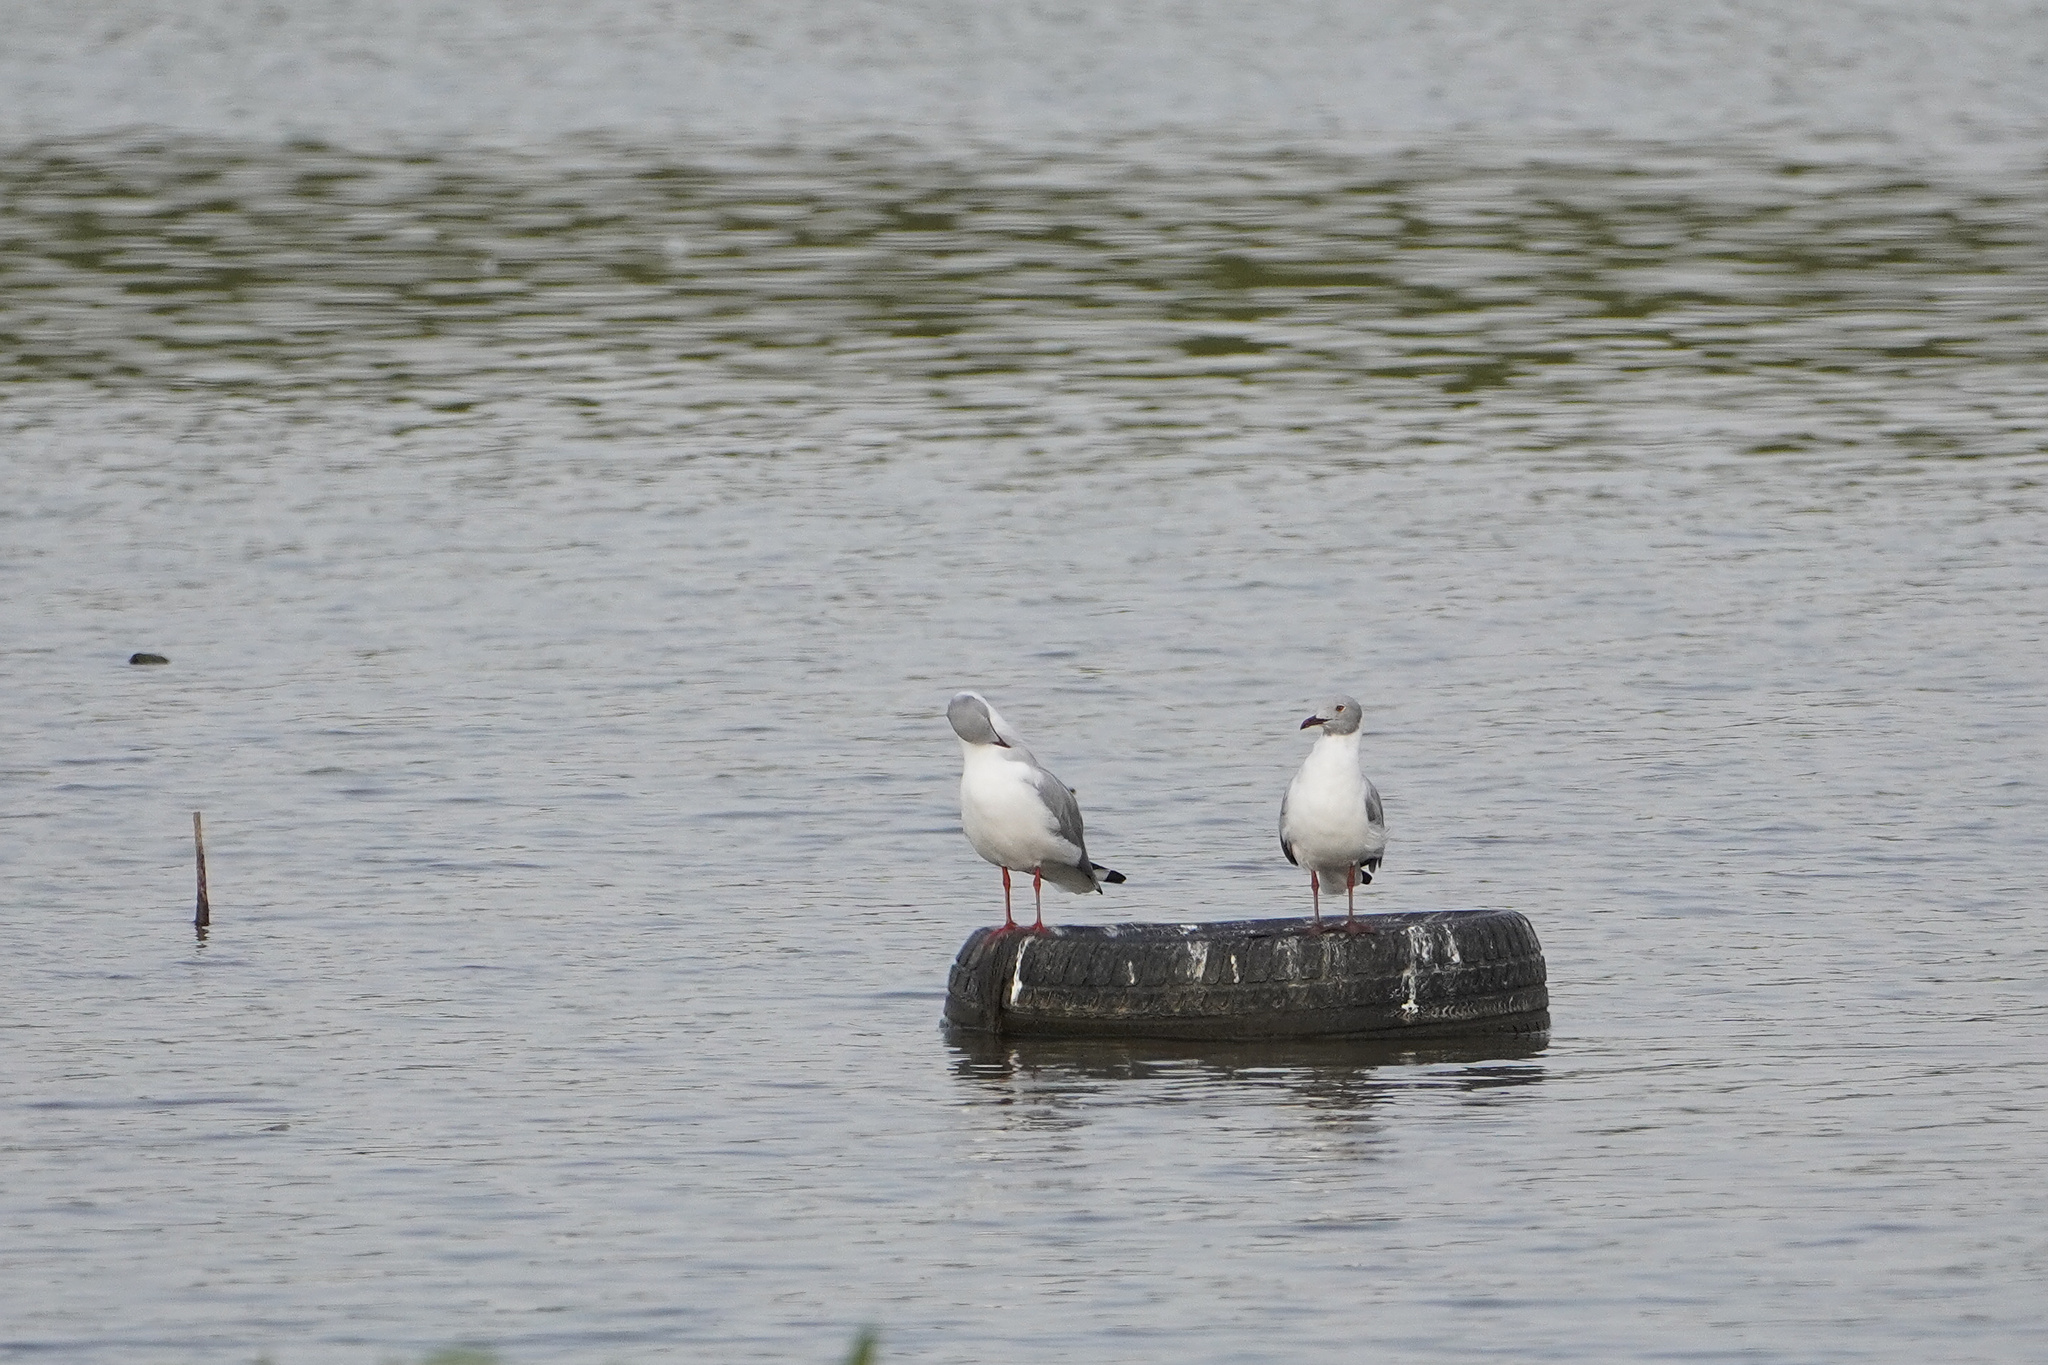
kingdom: Animalia
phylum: Chordata
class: Aves
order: Charadriiformes
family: Laridae
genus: Chroicocephalus
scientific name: Chroicocephalus cirrocephalus
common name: Grey-headed gull
